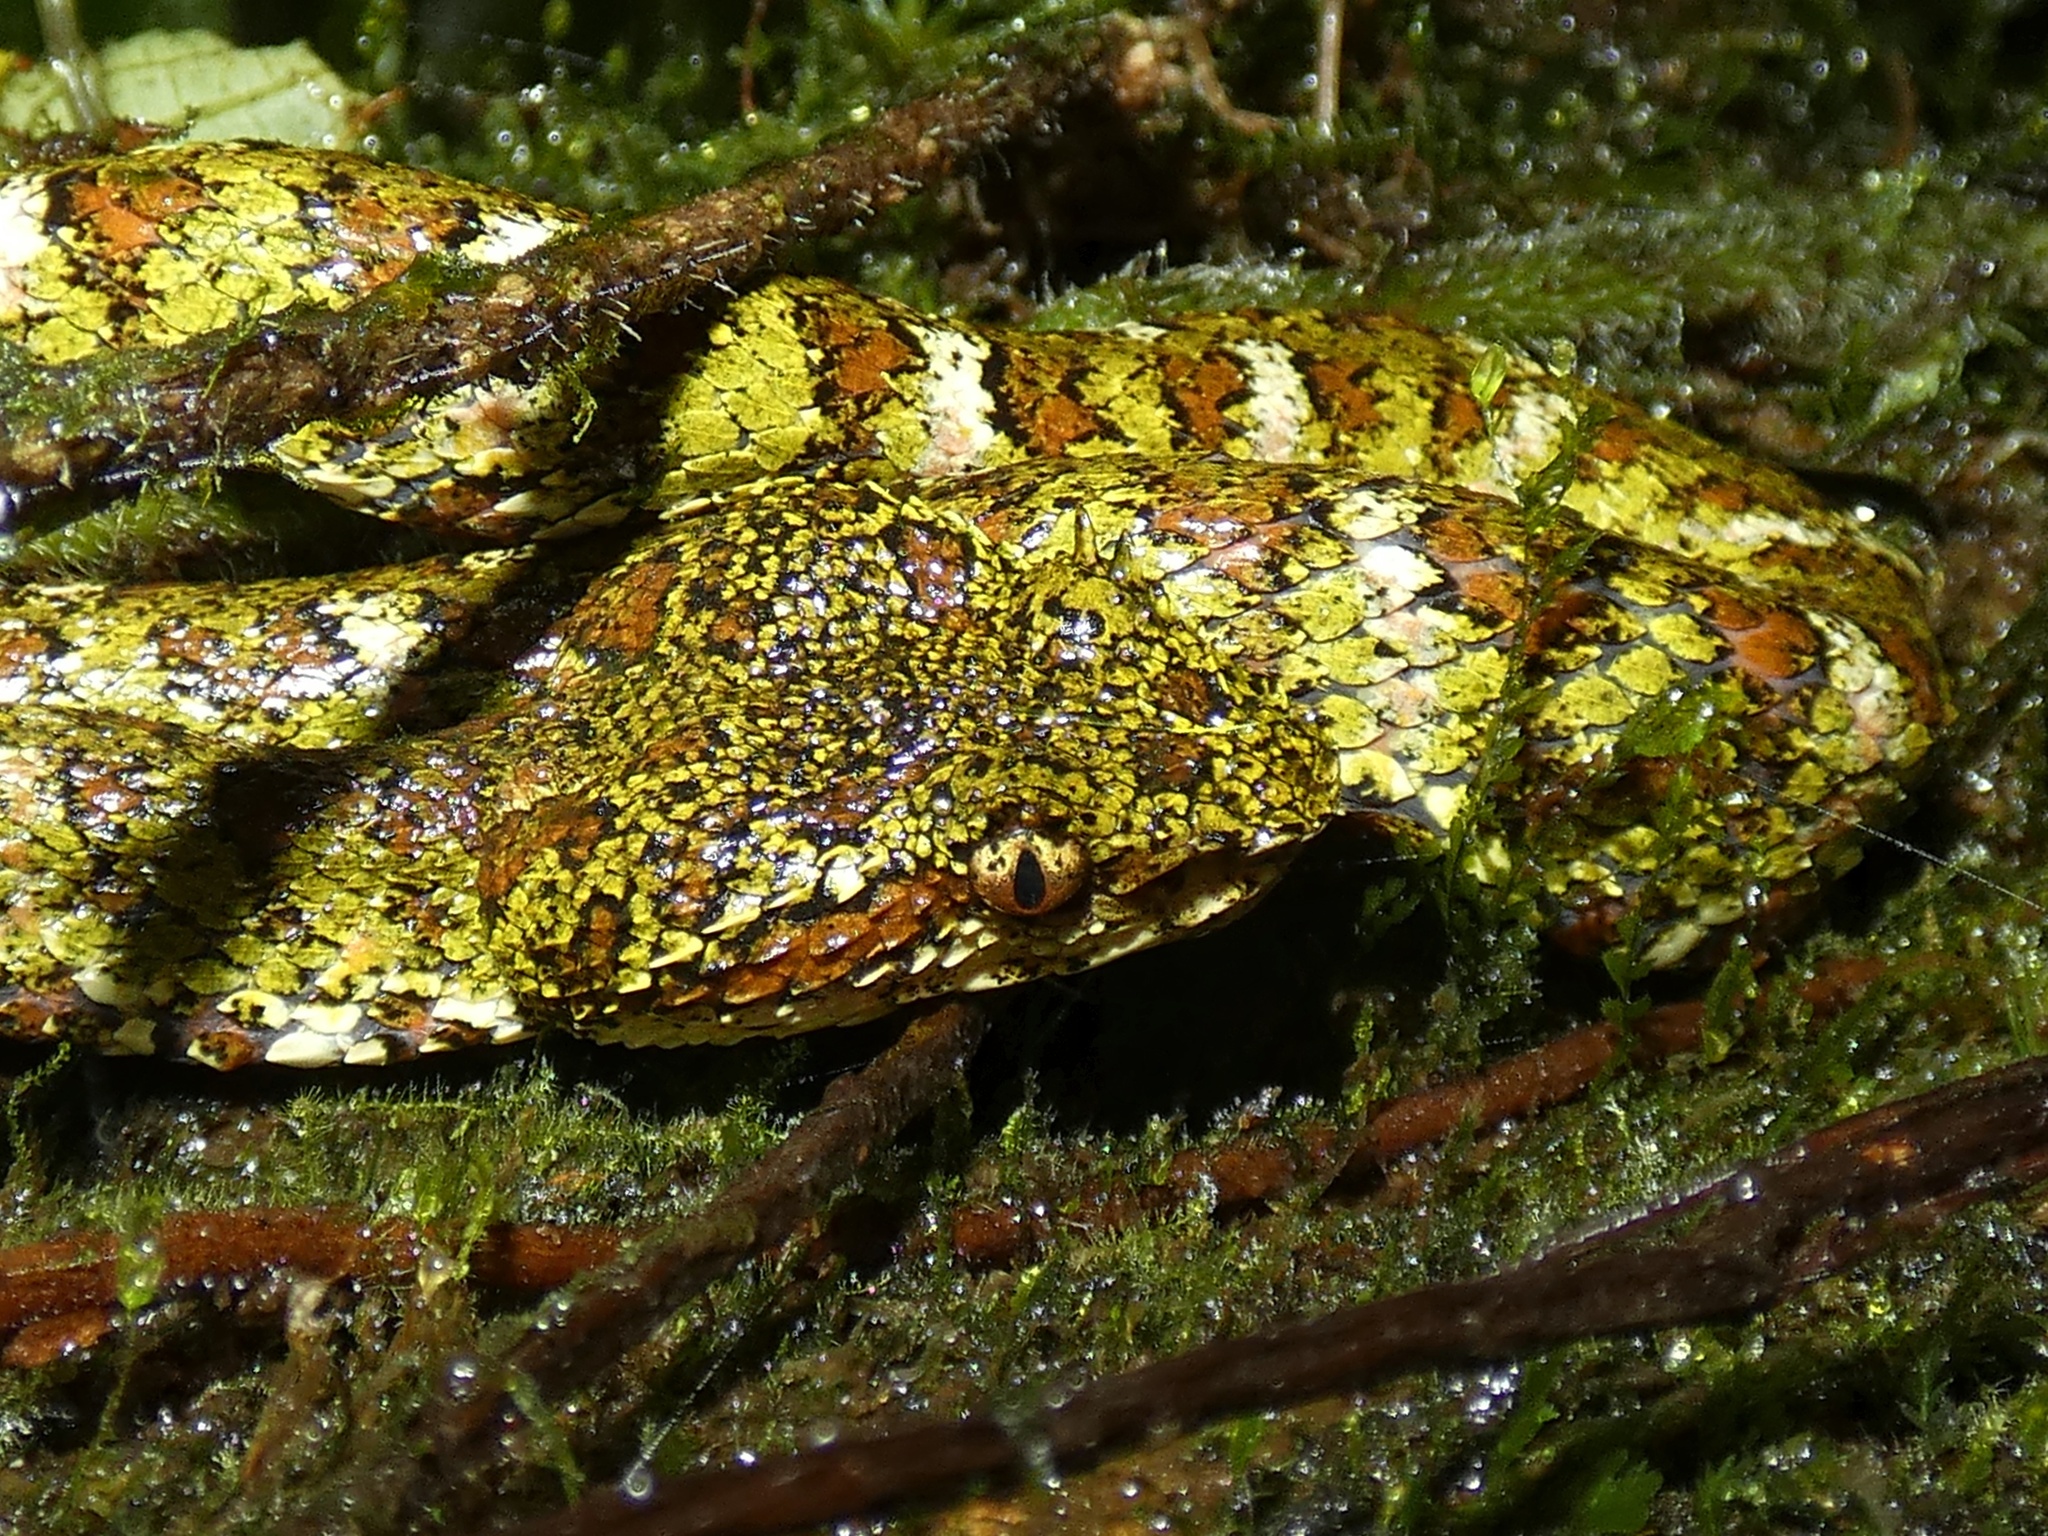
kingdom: Animalia
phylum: Chordata
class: Squamata
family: Viperidae
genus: Bothriechis
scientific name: Bothriechis schlegelii
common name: Eyelash viper
